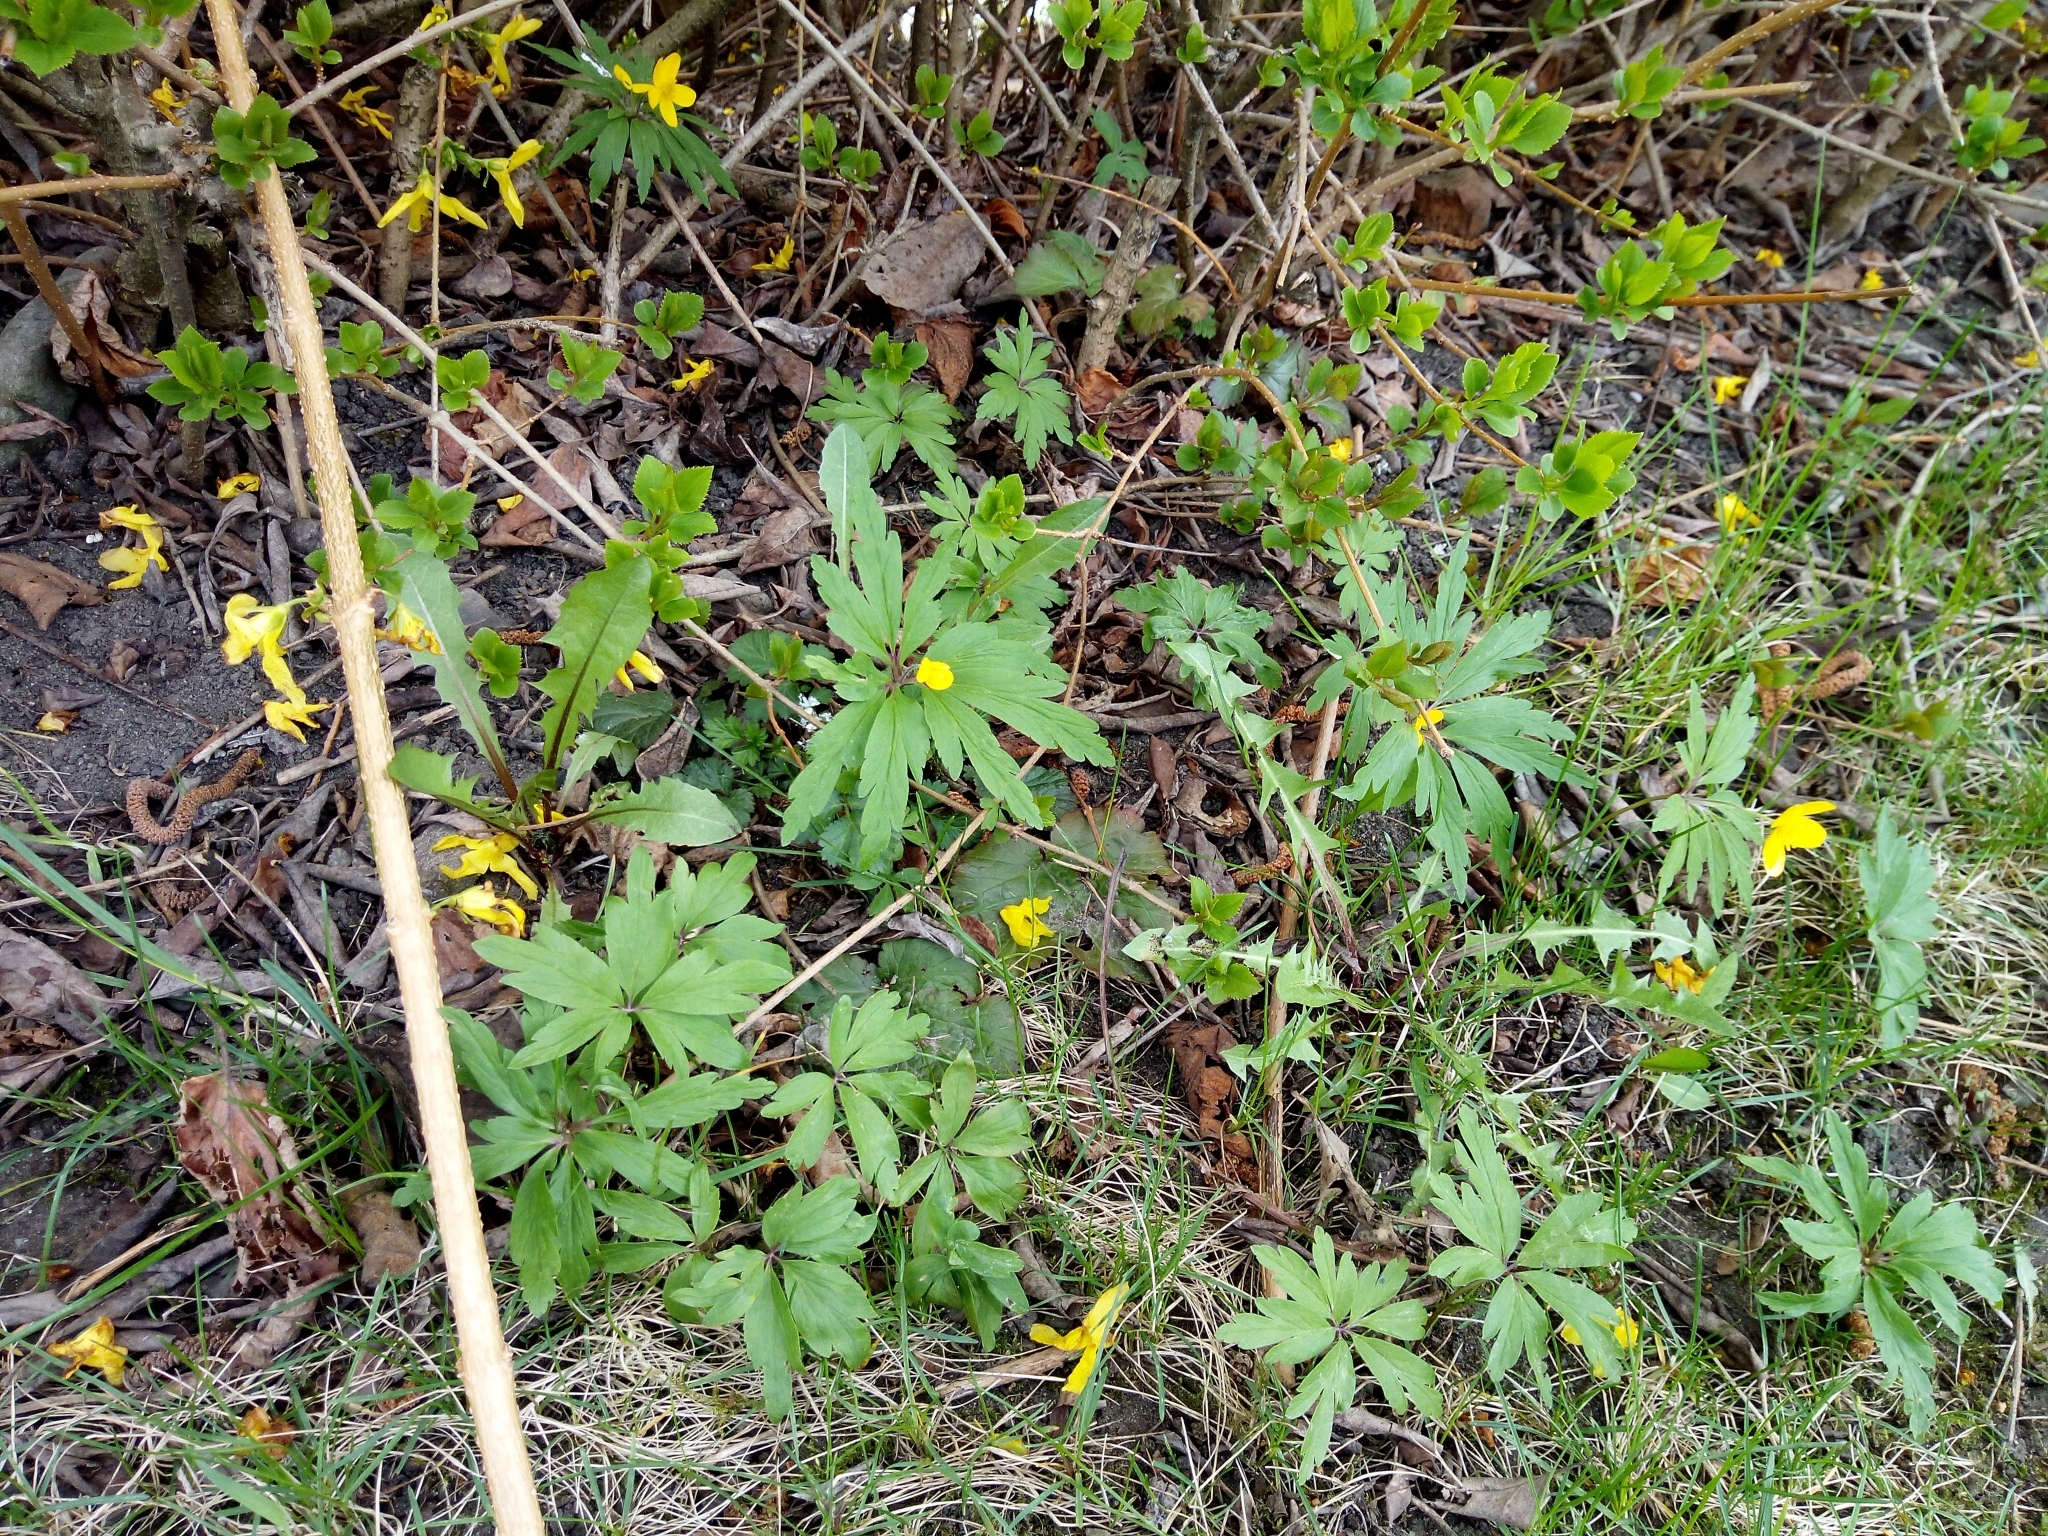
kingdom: Plantae
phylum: Tracheophyta
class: Magnoliopsida
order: Ranunculales
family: Ranunculaceae
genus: Anemone
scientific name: Anemone ranunculoides
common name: Yellow anemone
